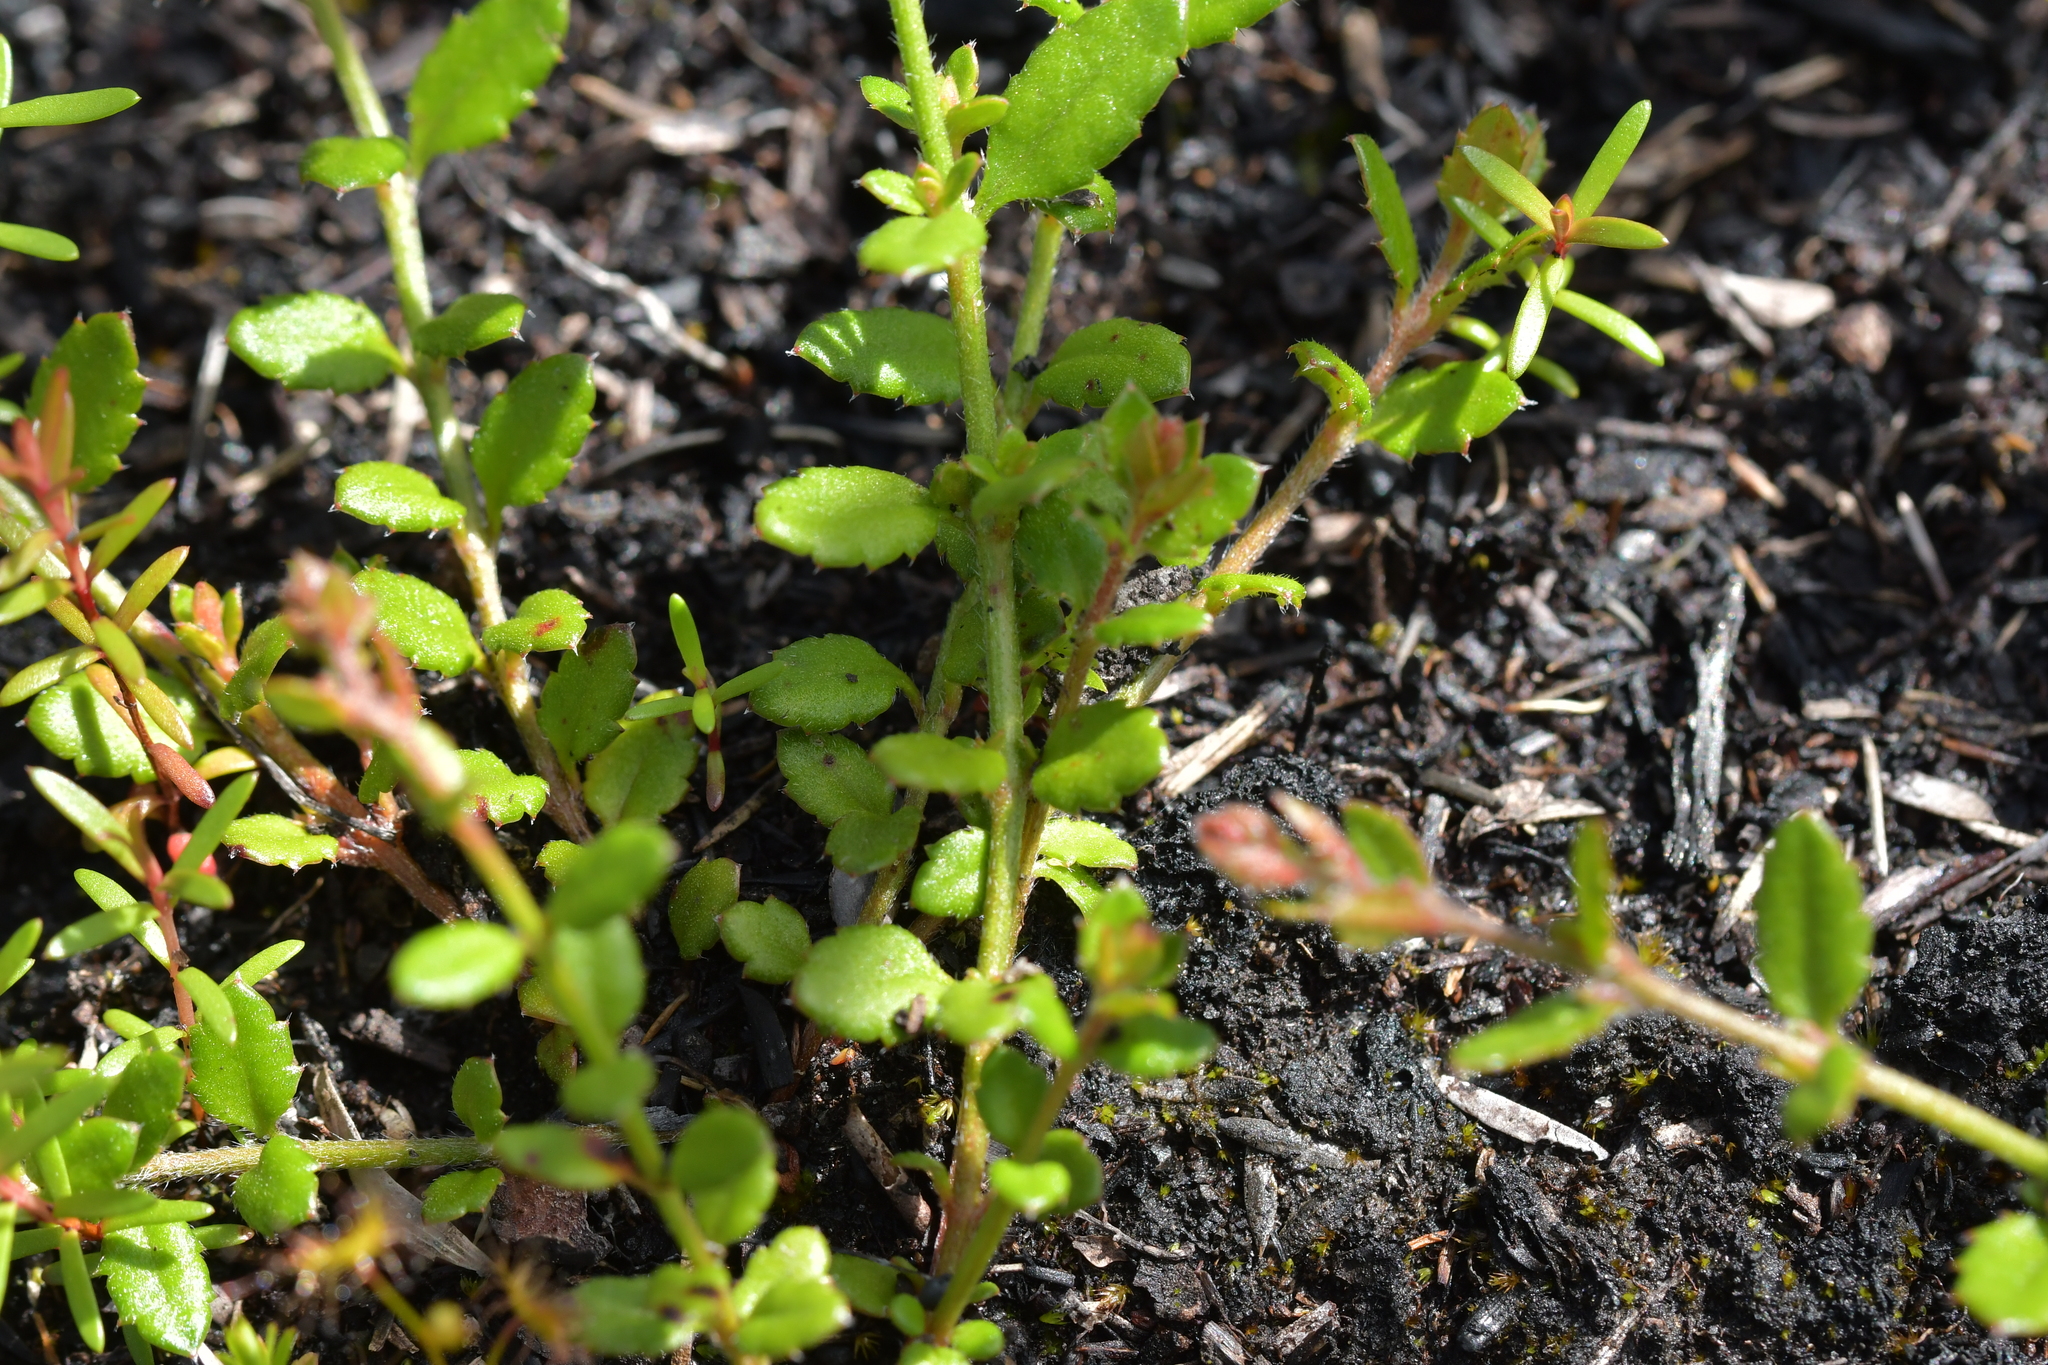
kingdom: Plantae
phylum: Tracheophyta
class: Magnoliopsida
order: Saxifragales
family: Haloragaceae
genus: Gonocarpus
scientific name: Gonocarpus incanus
